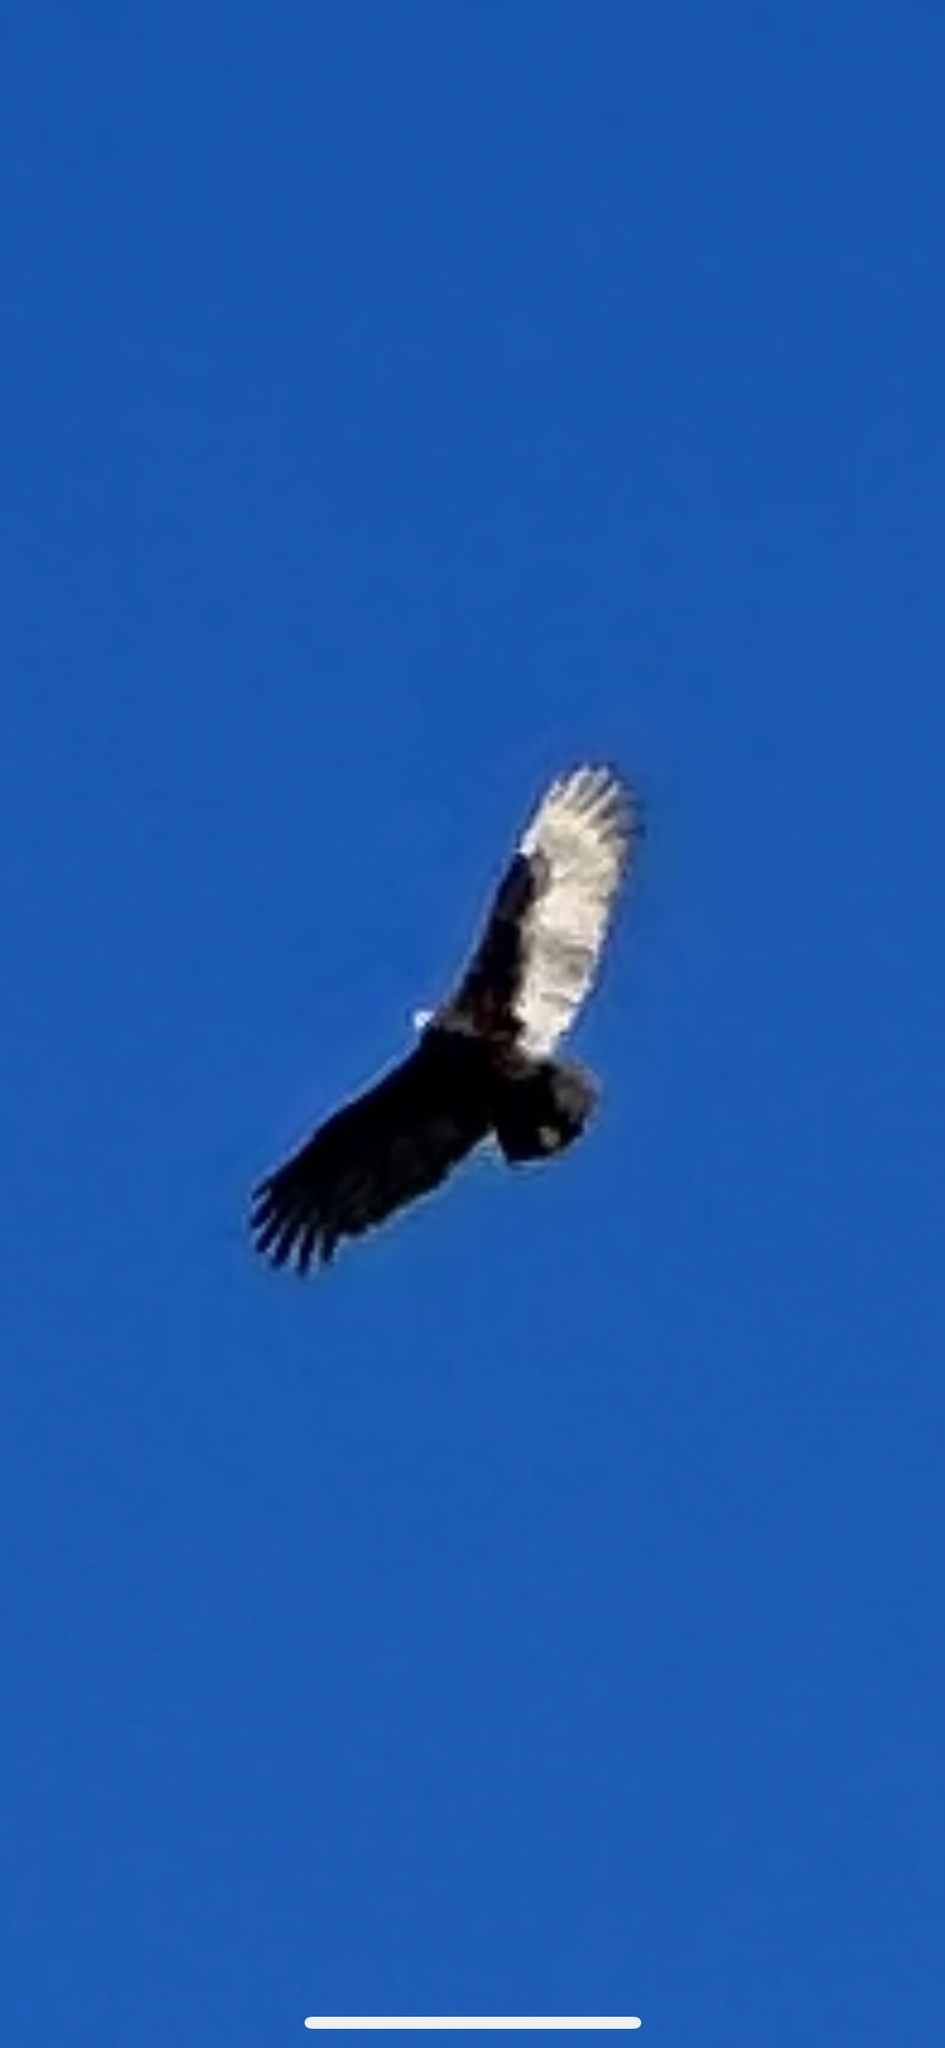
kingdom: Animalia
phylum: Chordata
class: Aves
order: Accipitriformes
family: Cathartidae
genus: Cathartes
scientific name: Cathartes aura
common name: Turkey vulture
